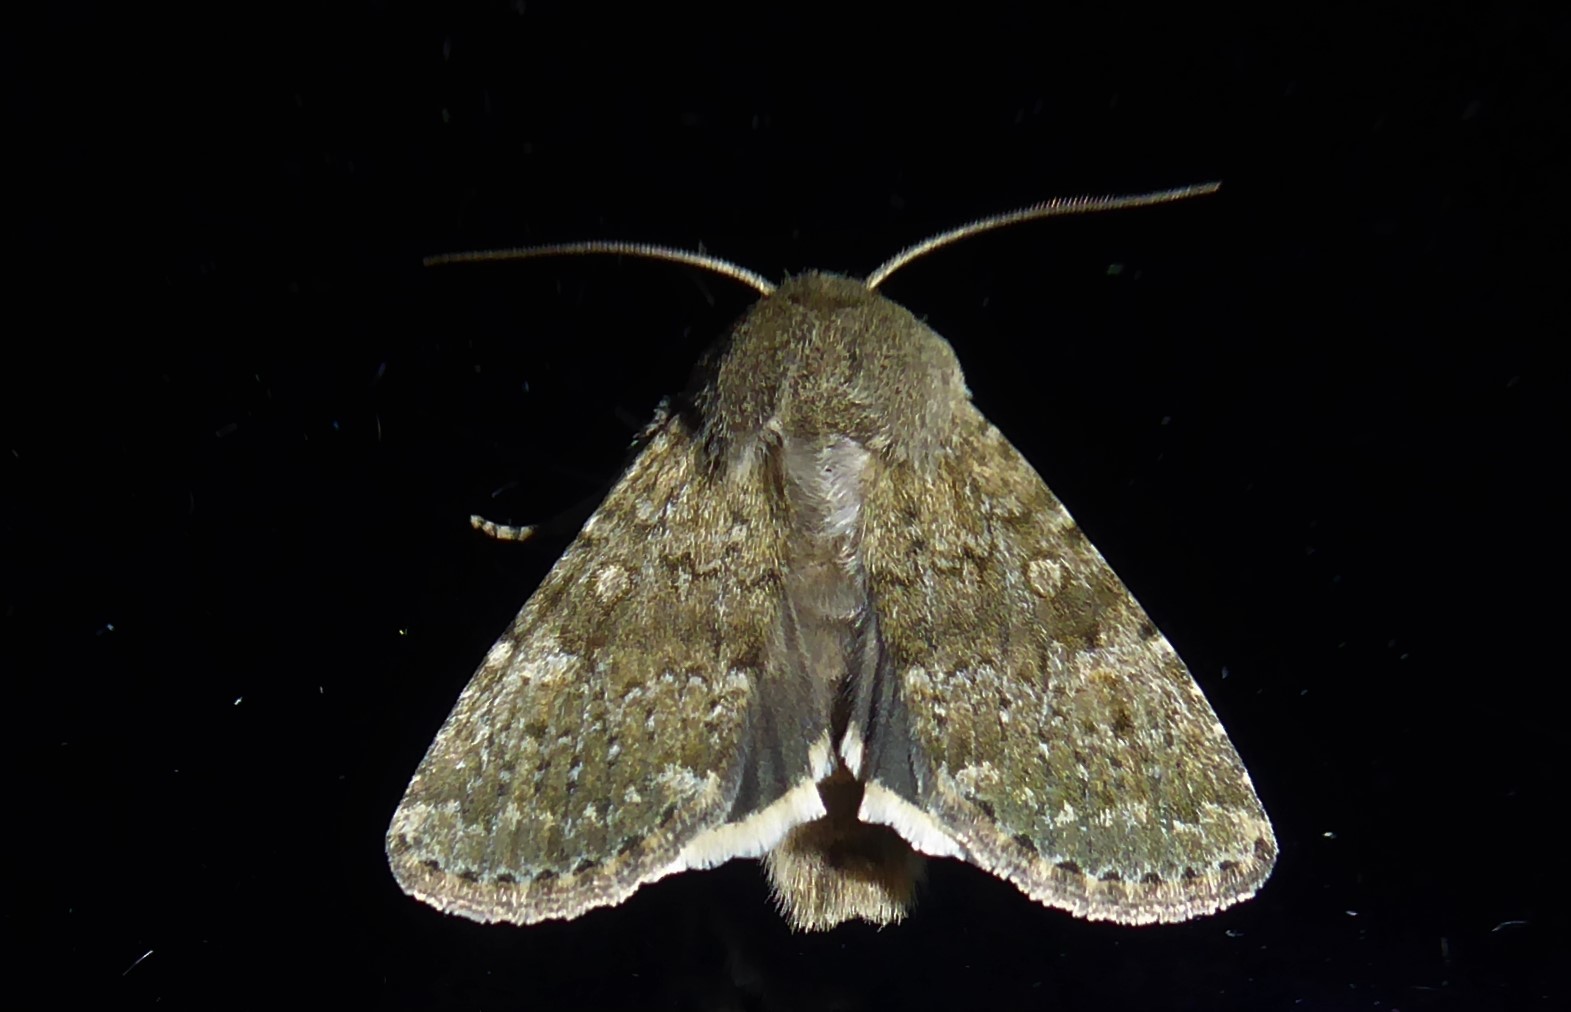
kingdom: Animalia
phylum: Arthropoda
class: Insecta
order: Lepidoptera
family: Noctuidae
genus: Ichneutica
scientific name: Ichneutica moderata
